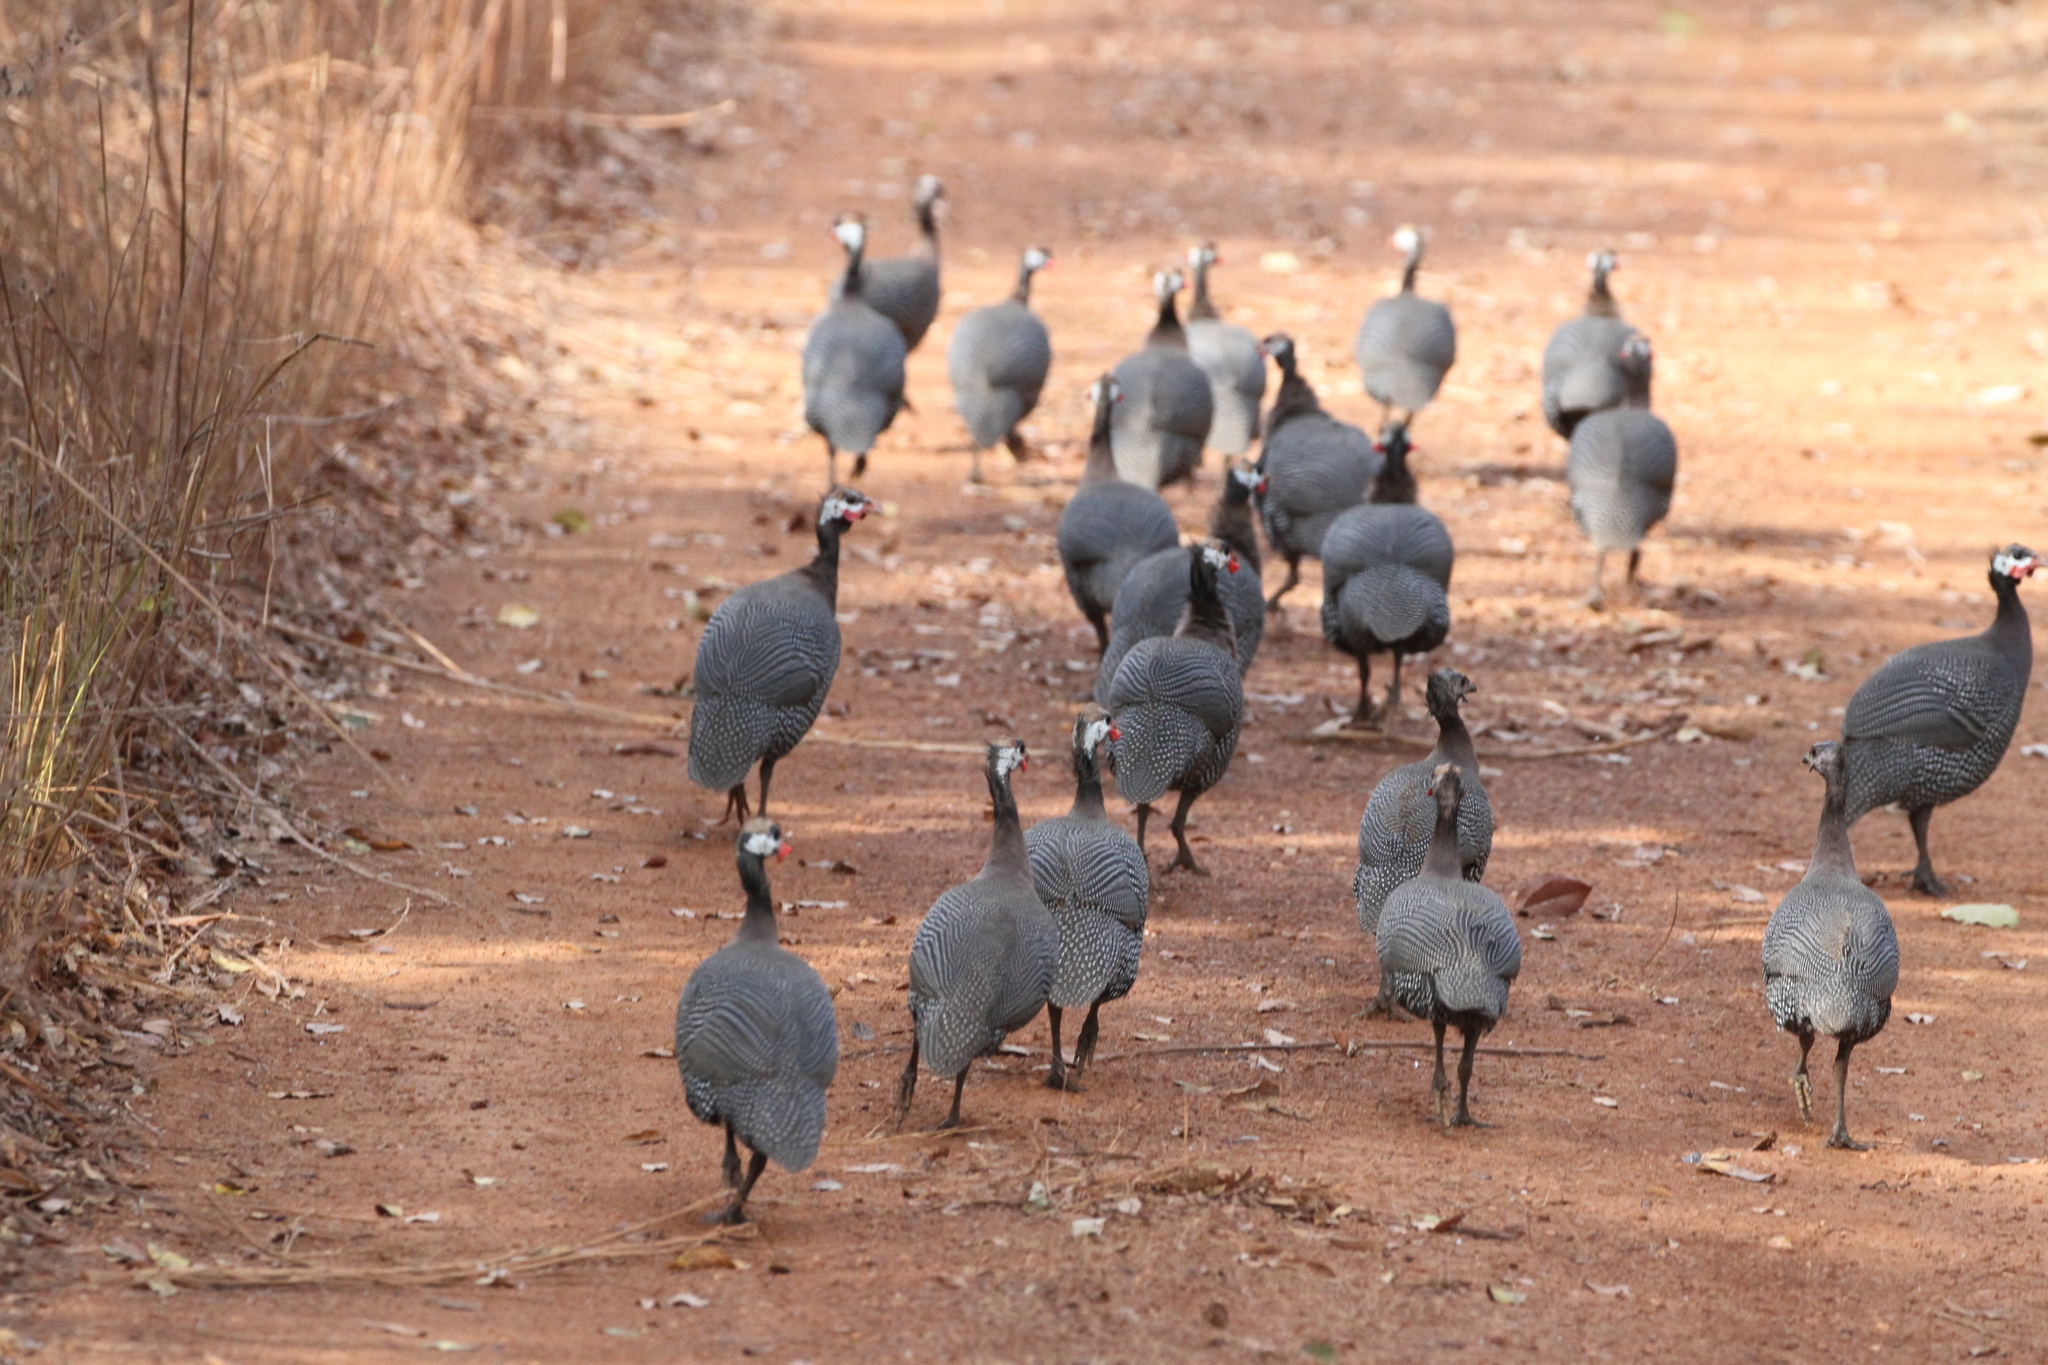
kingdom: Animalia
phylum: Chordata
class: Aves
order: Galliformes
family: Numididae
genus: Numida
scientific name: Numida meleagris
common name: Helmeted guineafowl
